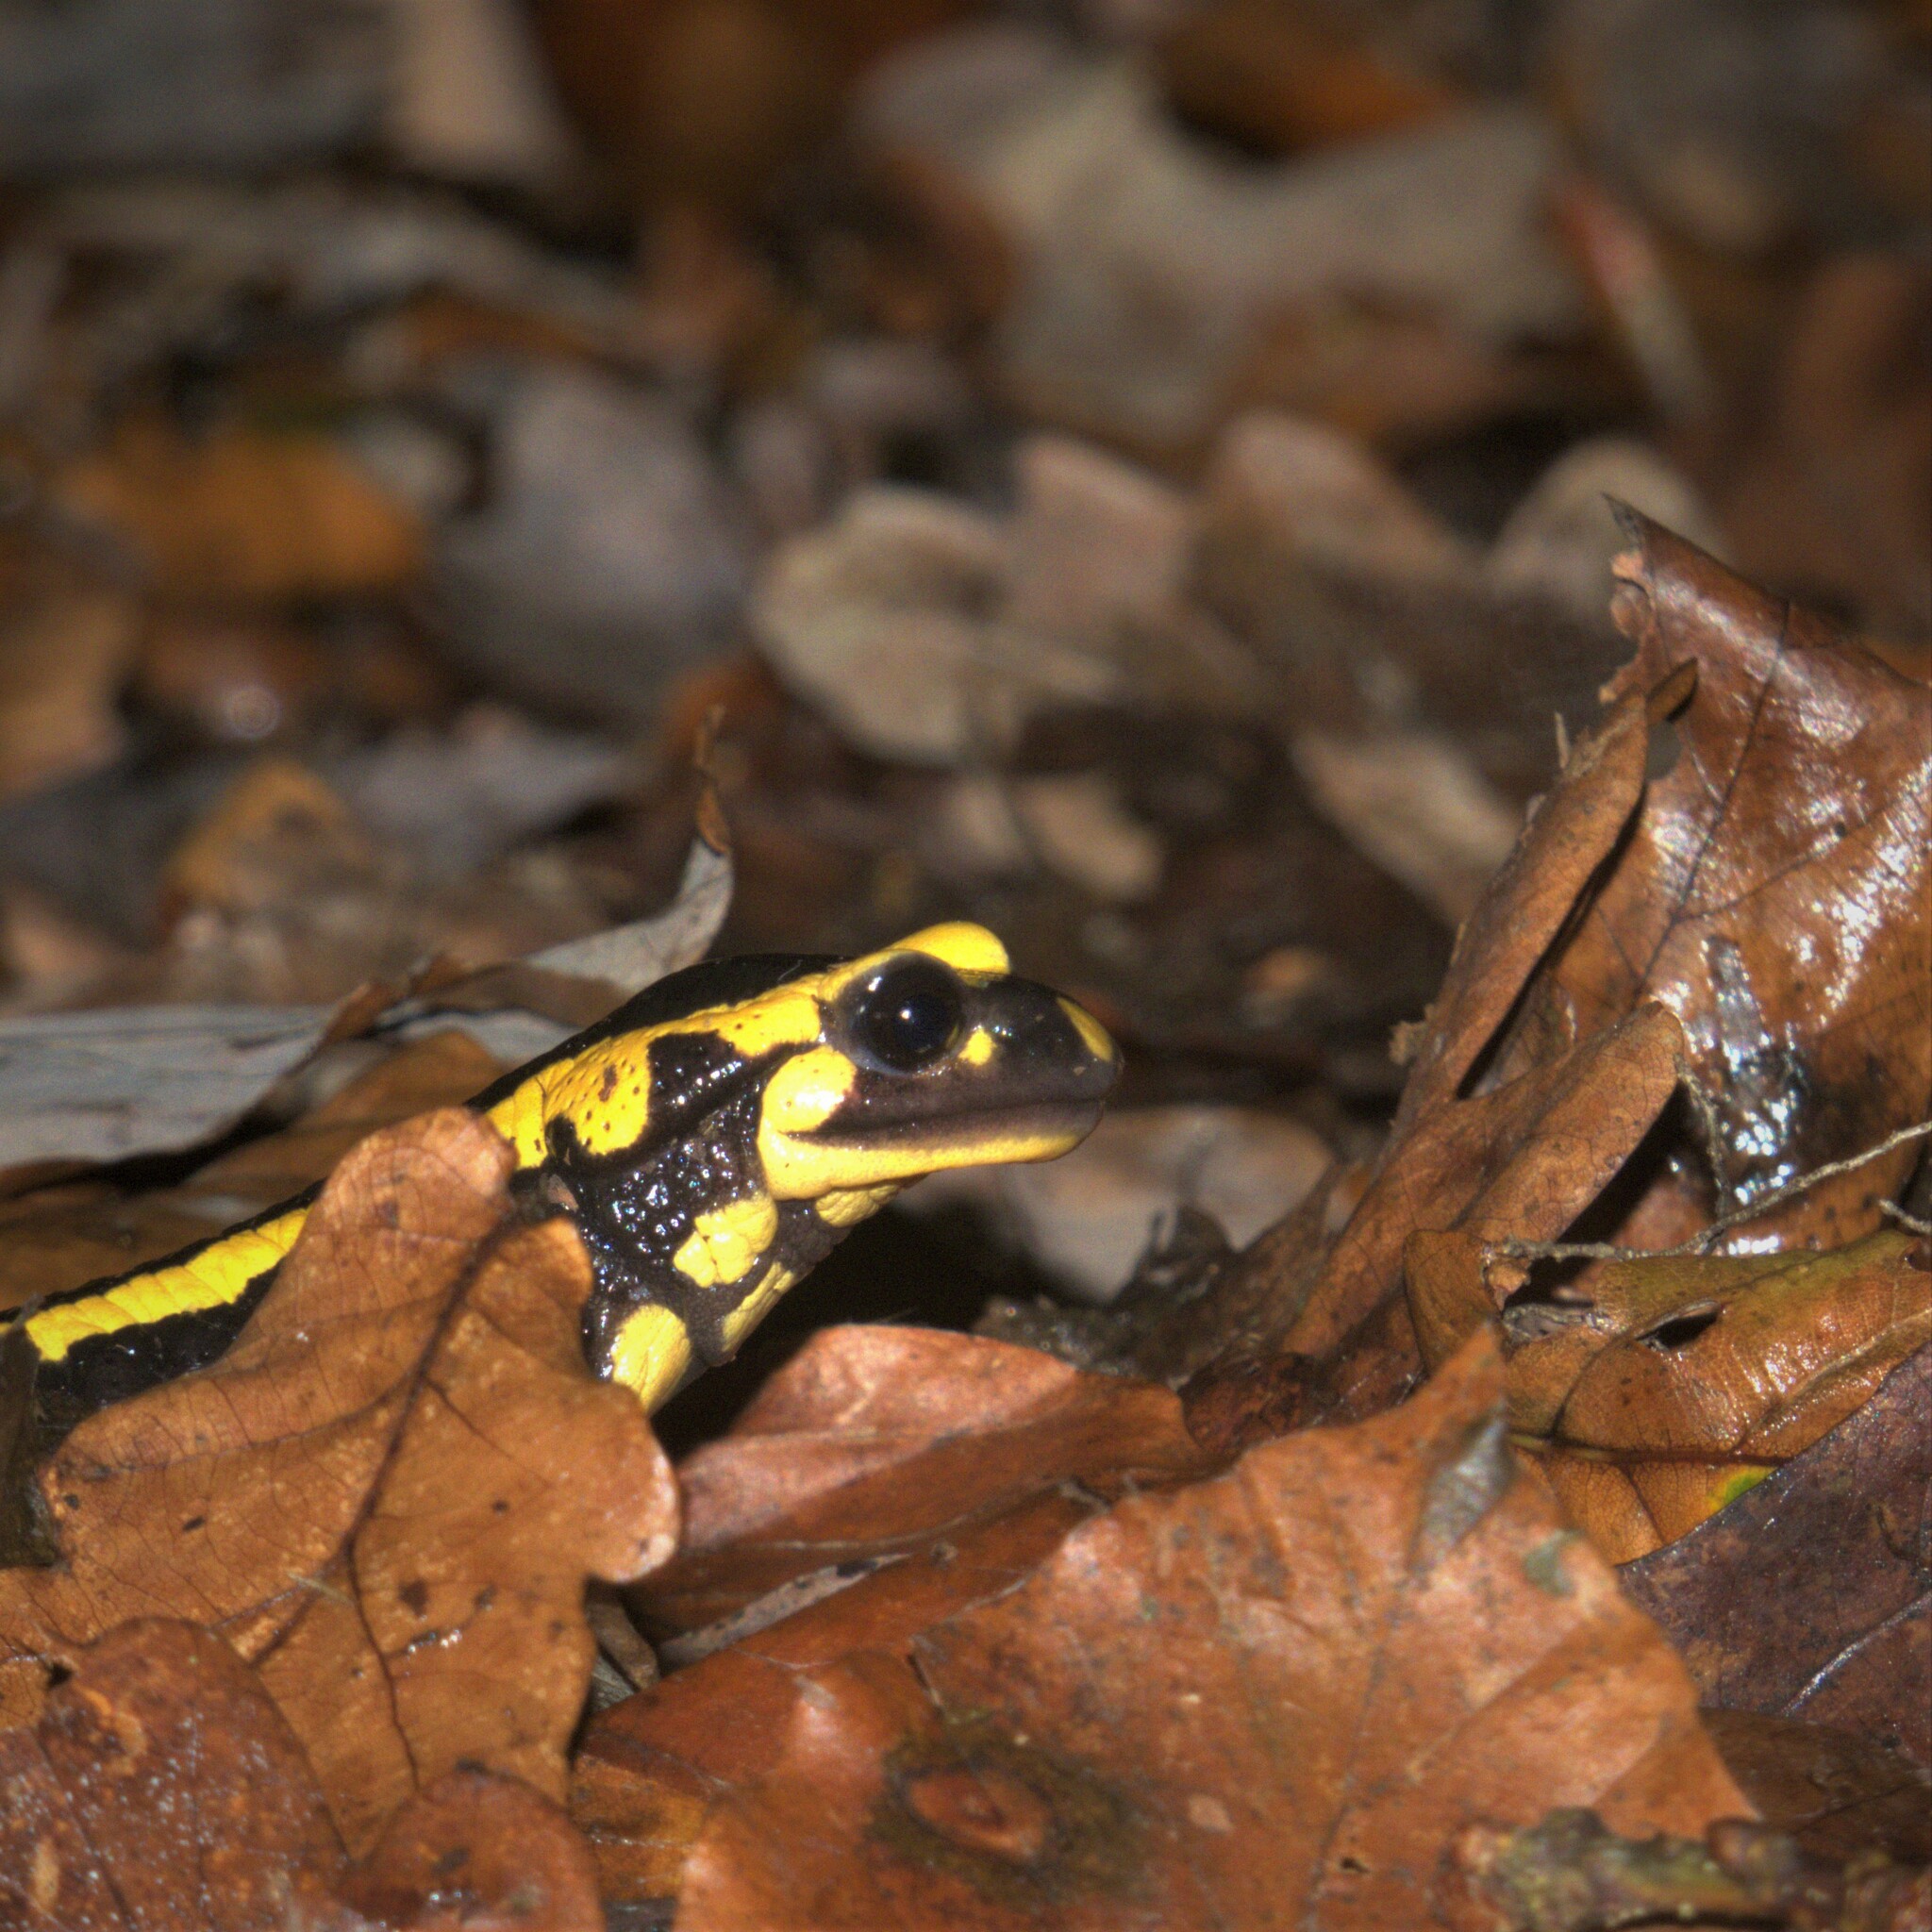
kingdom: Animalia
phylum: Chordata
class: Amphibia
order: Caudata
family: Salamandridae
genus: Salamandra
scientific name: Salamandra salamandra
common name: Fire salamander
